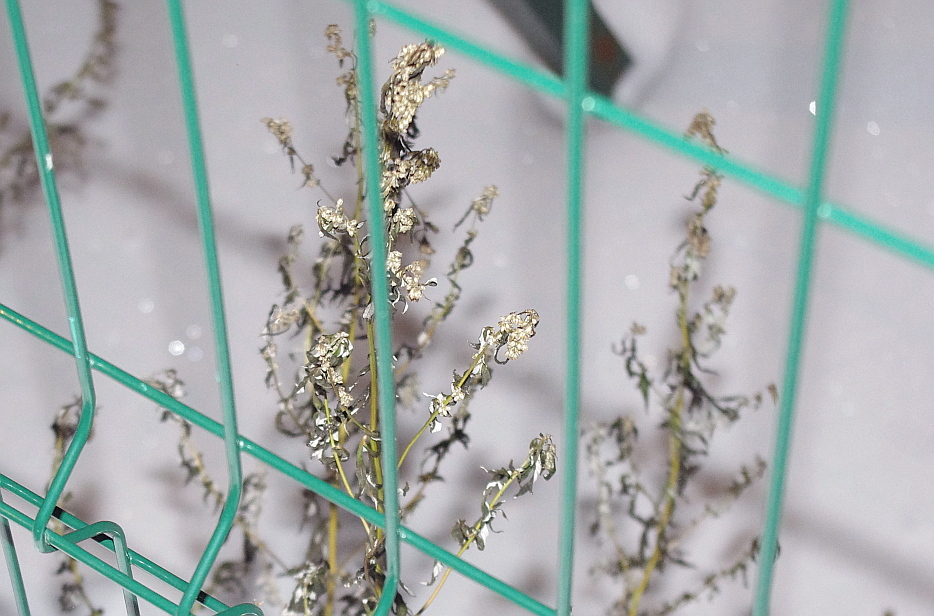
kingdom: Plantae
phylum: Tracheophyta
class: Magnoliopsida
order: Asterales
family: Asteraceae
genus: Artemisia
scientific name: Artemisia vulgaris
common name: Mugwort
